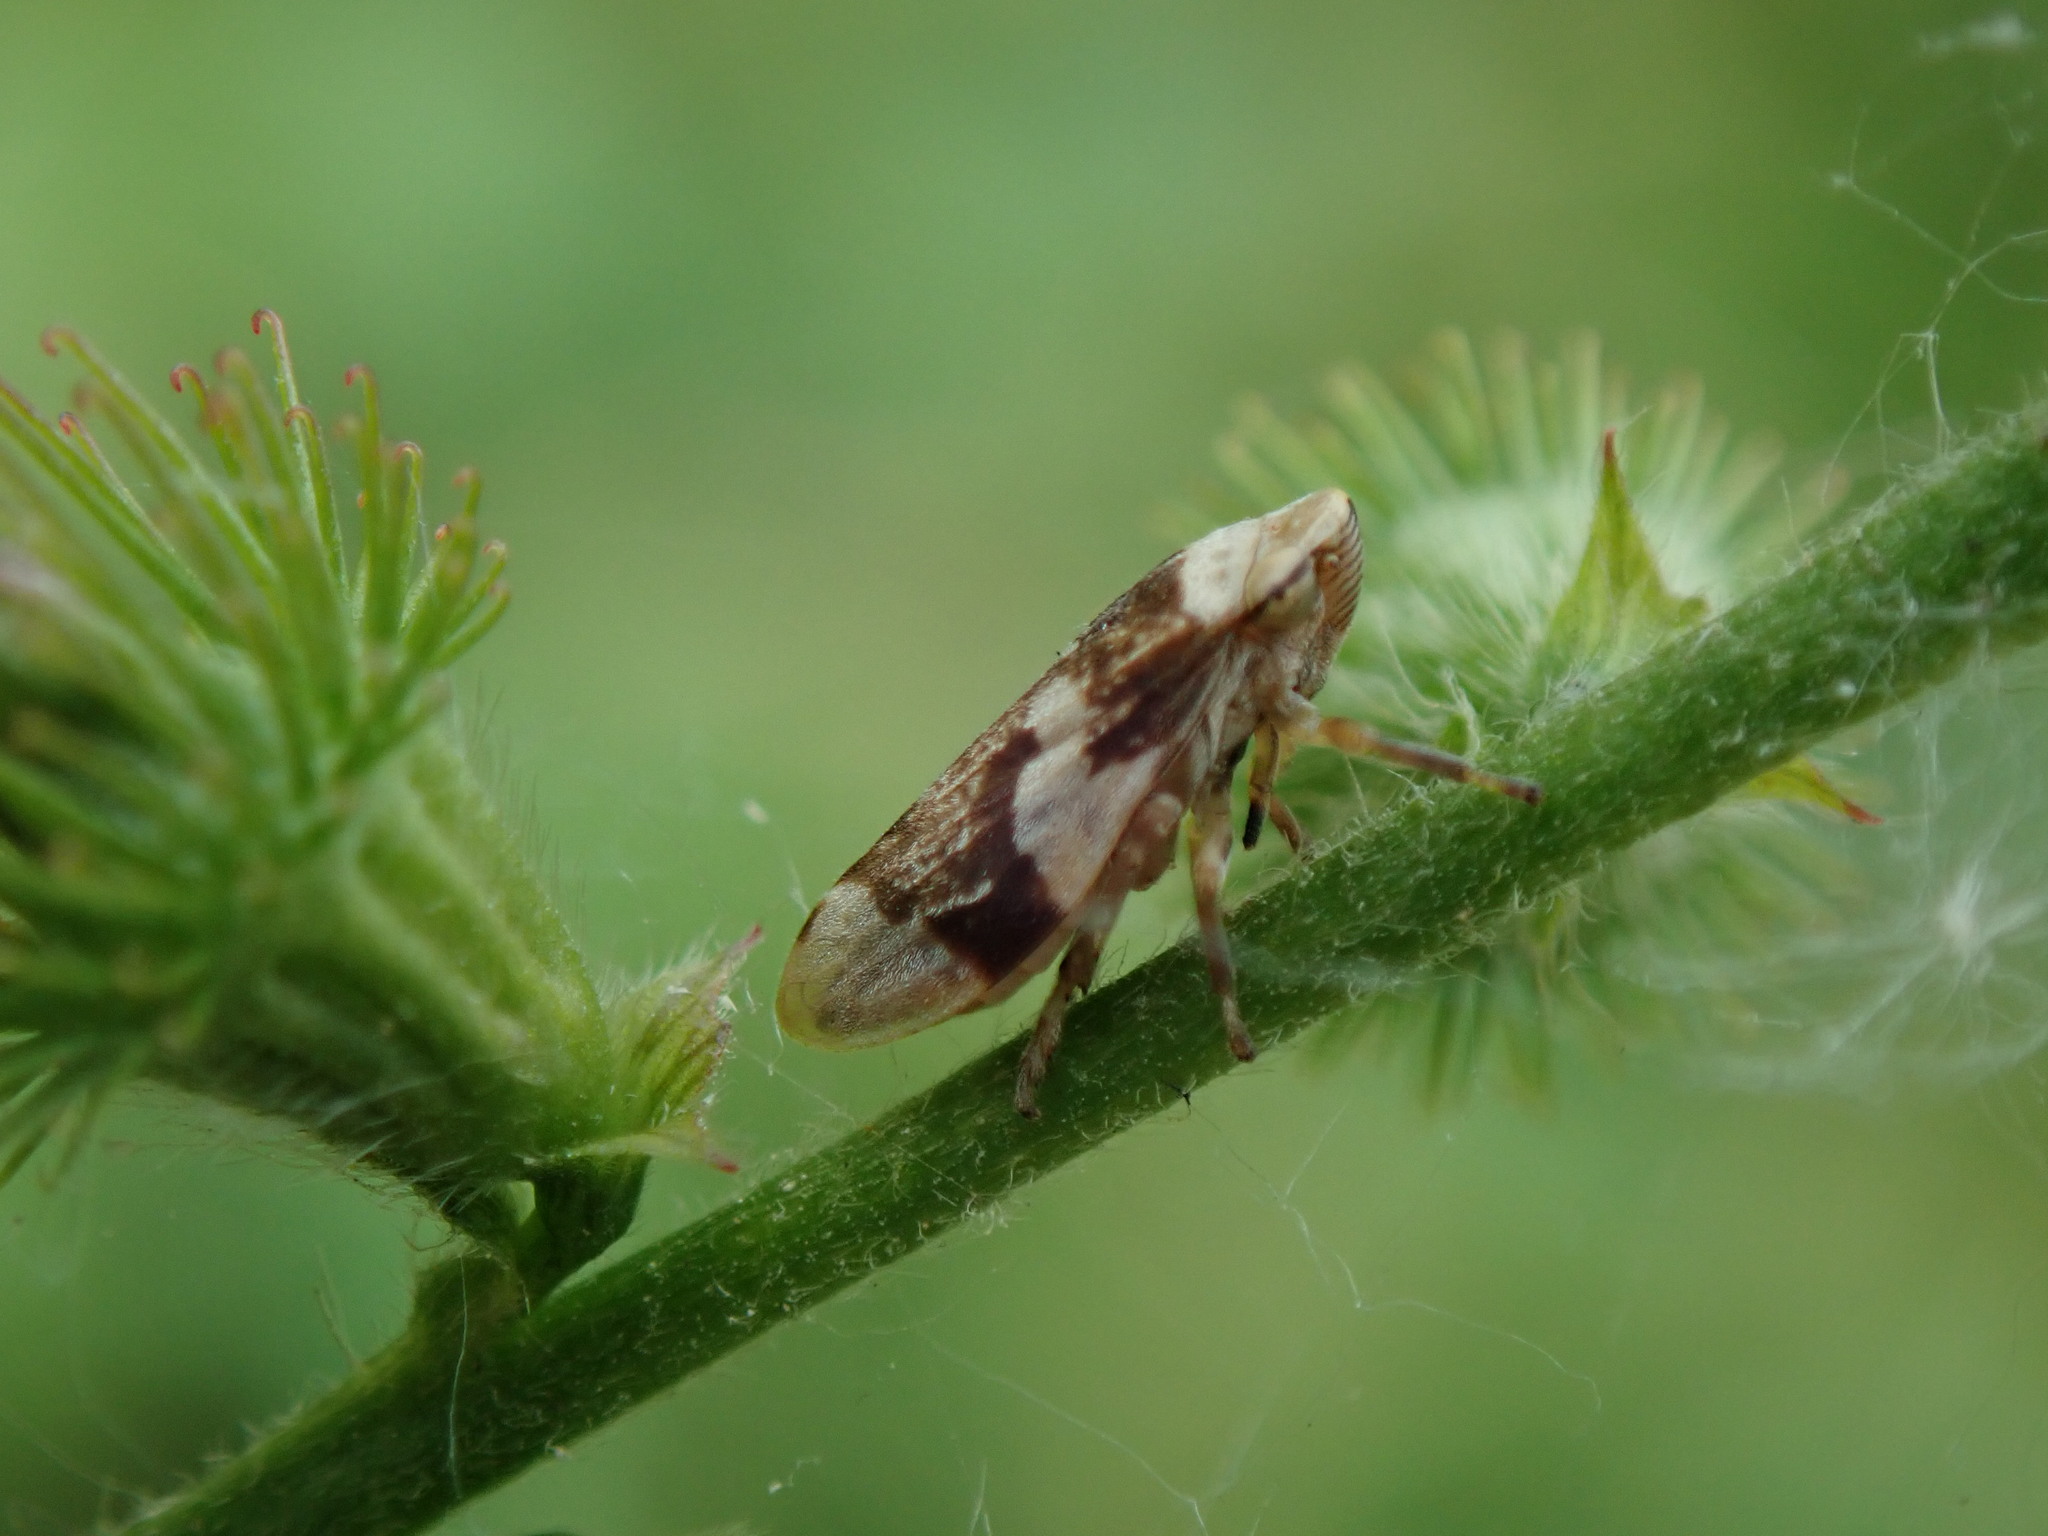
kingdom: Animalia
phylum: Arthropoda
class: Insecta
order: Hemiptera
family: Aphrophoridae
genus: Philaenus
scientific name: Philaenus spumarius
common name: Meadow spittlebug
